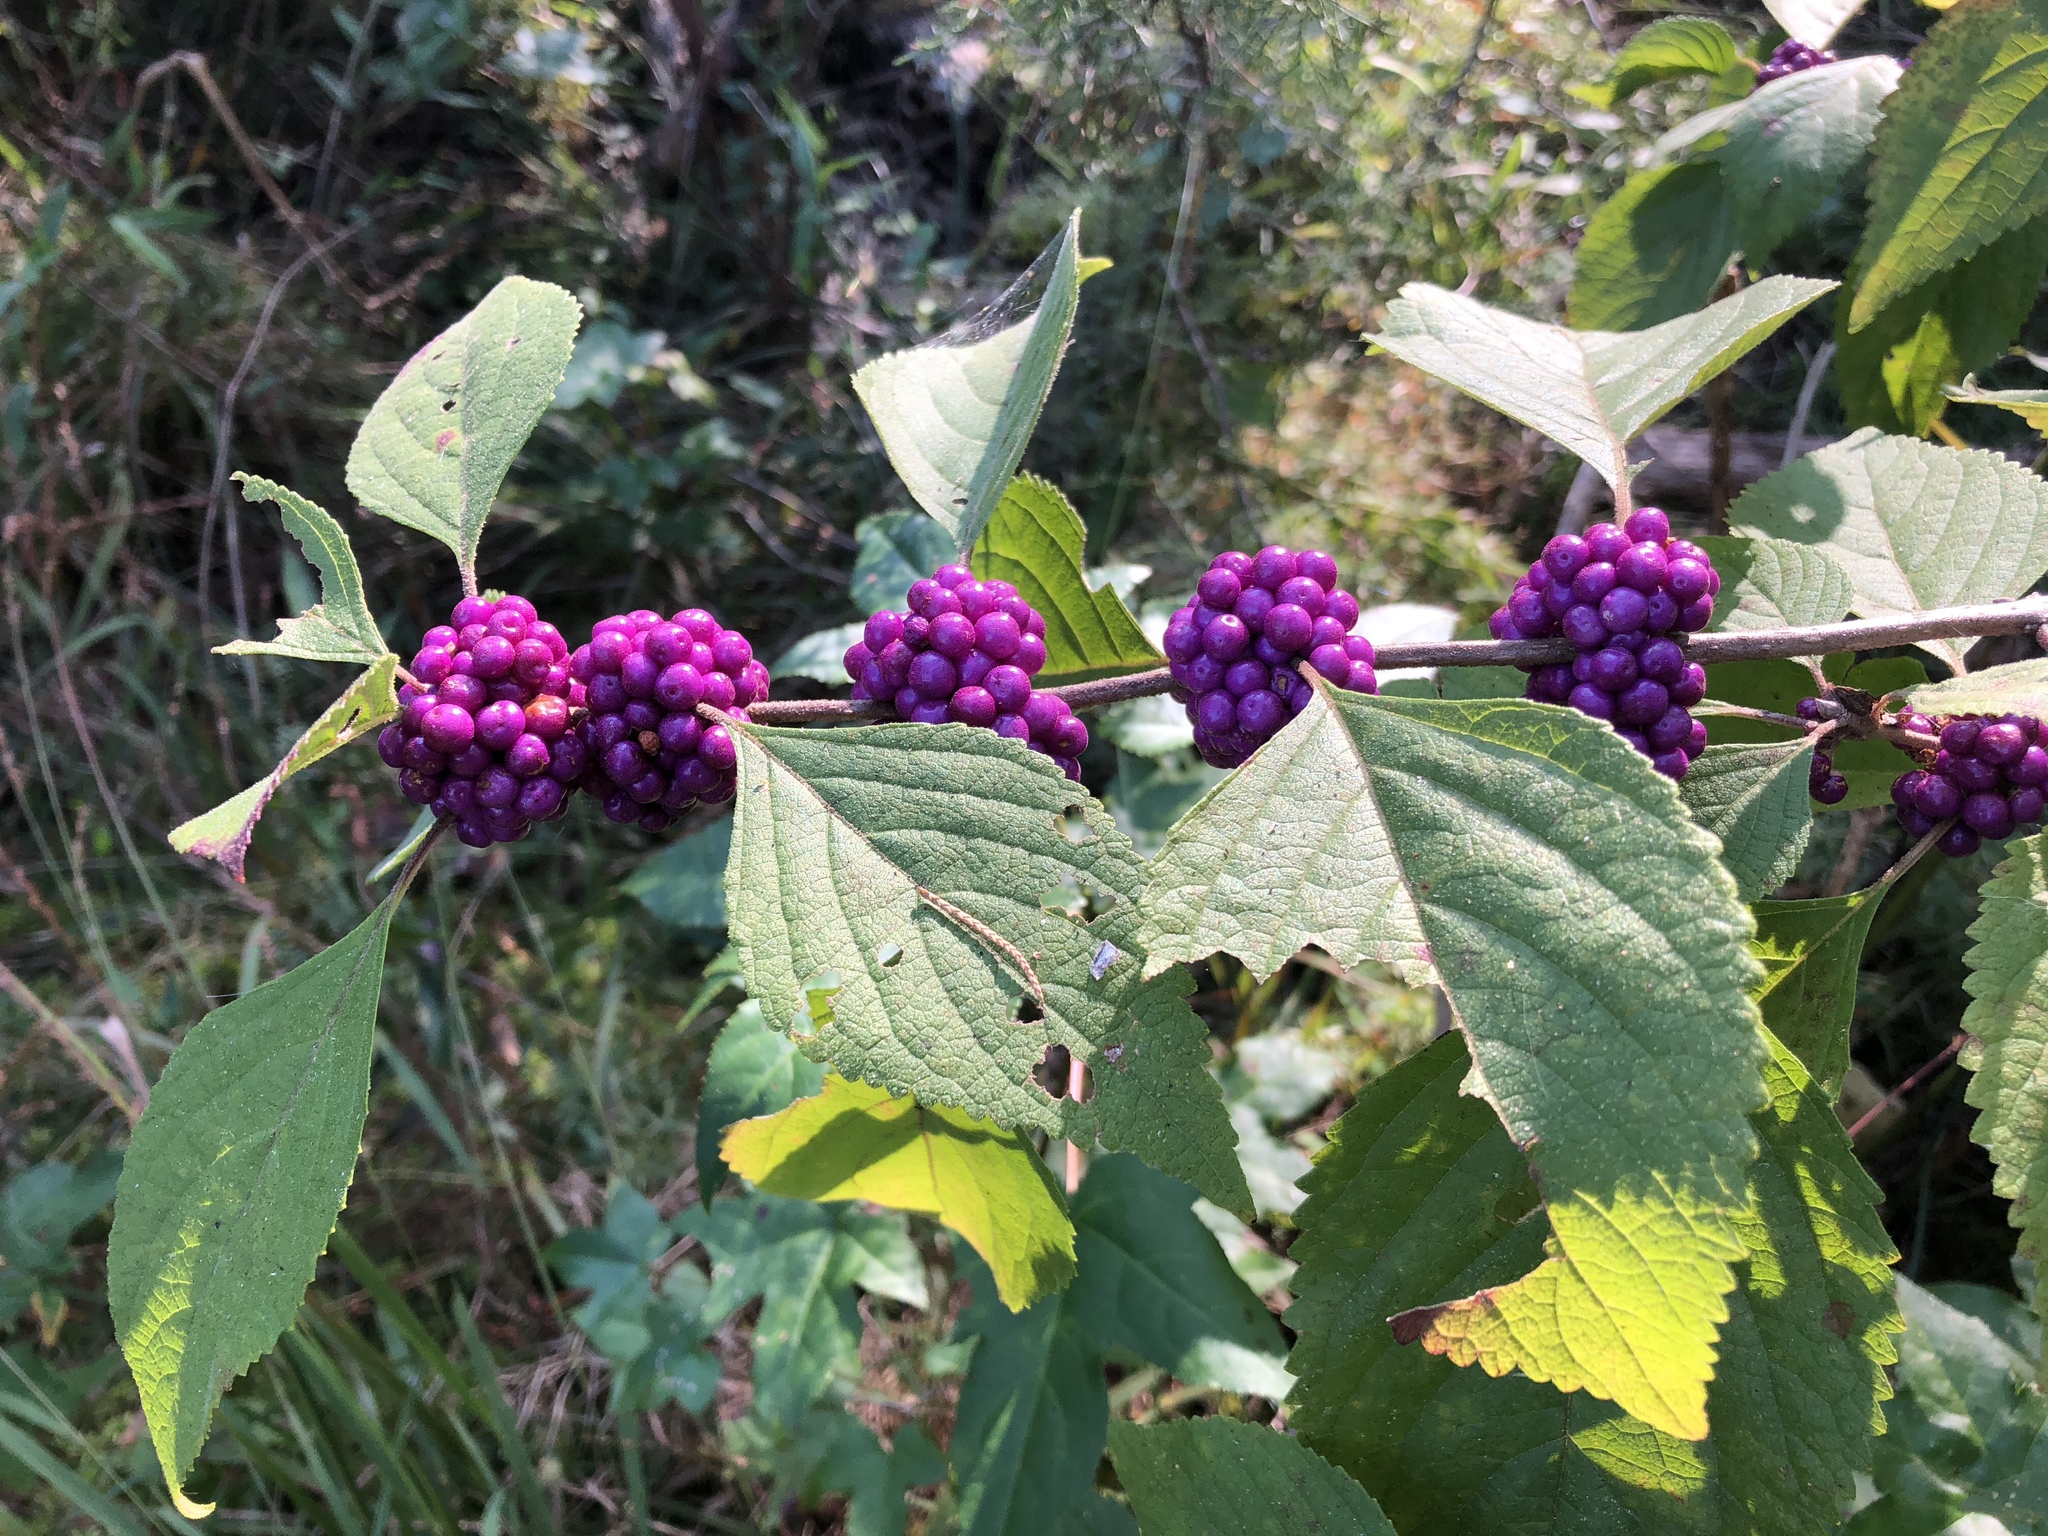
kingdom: Plantae
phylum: Tracheophyta
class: Magnoliopsida
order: Lamiales
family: Lamiaceae
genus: Callicarpa
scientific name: Callicarpa americana
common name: American beautyberry
